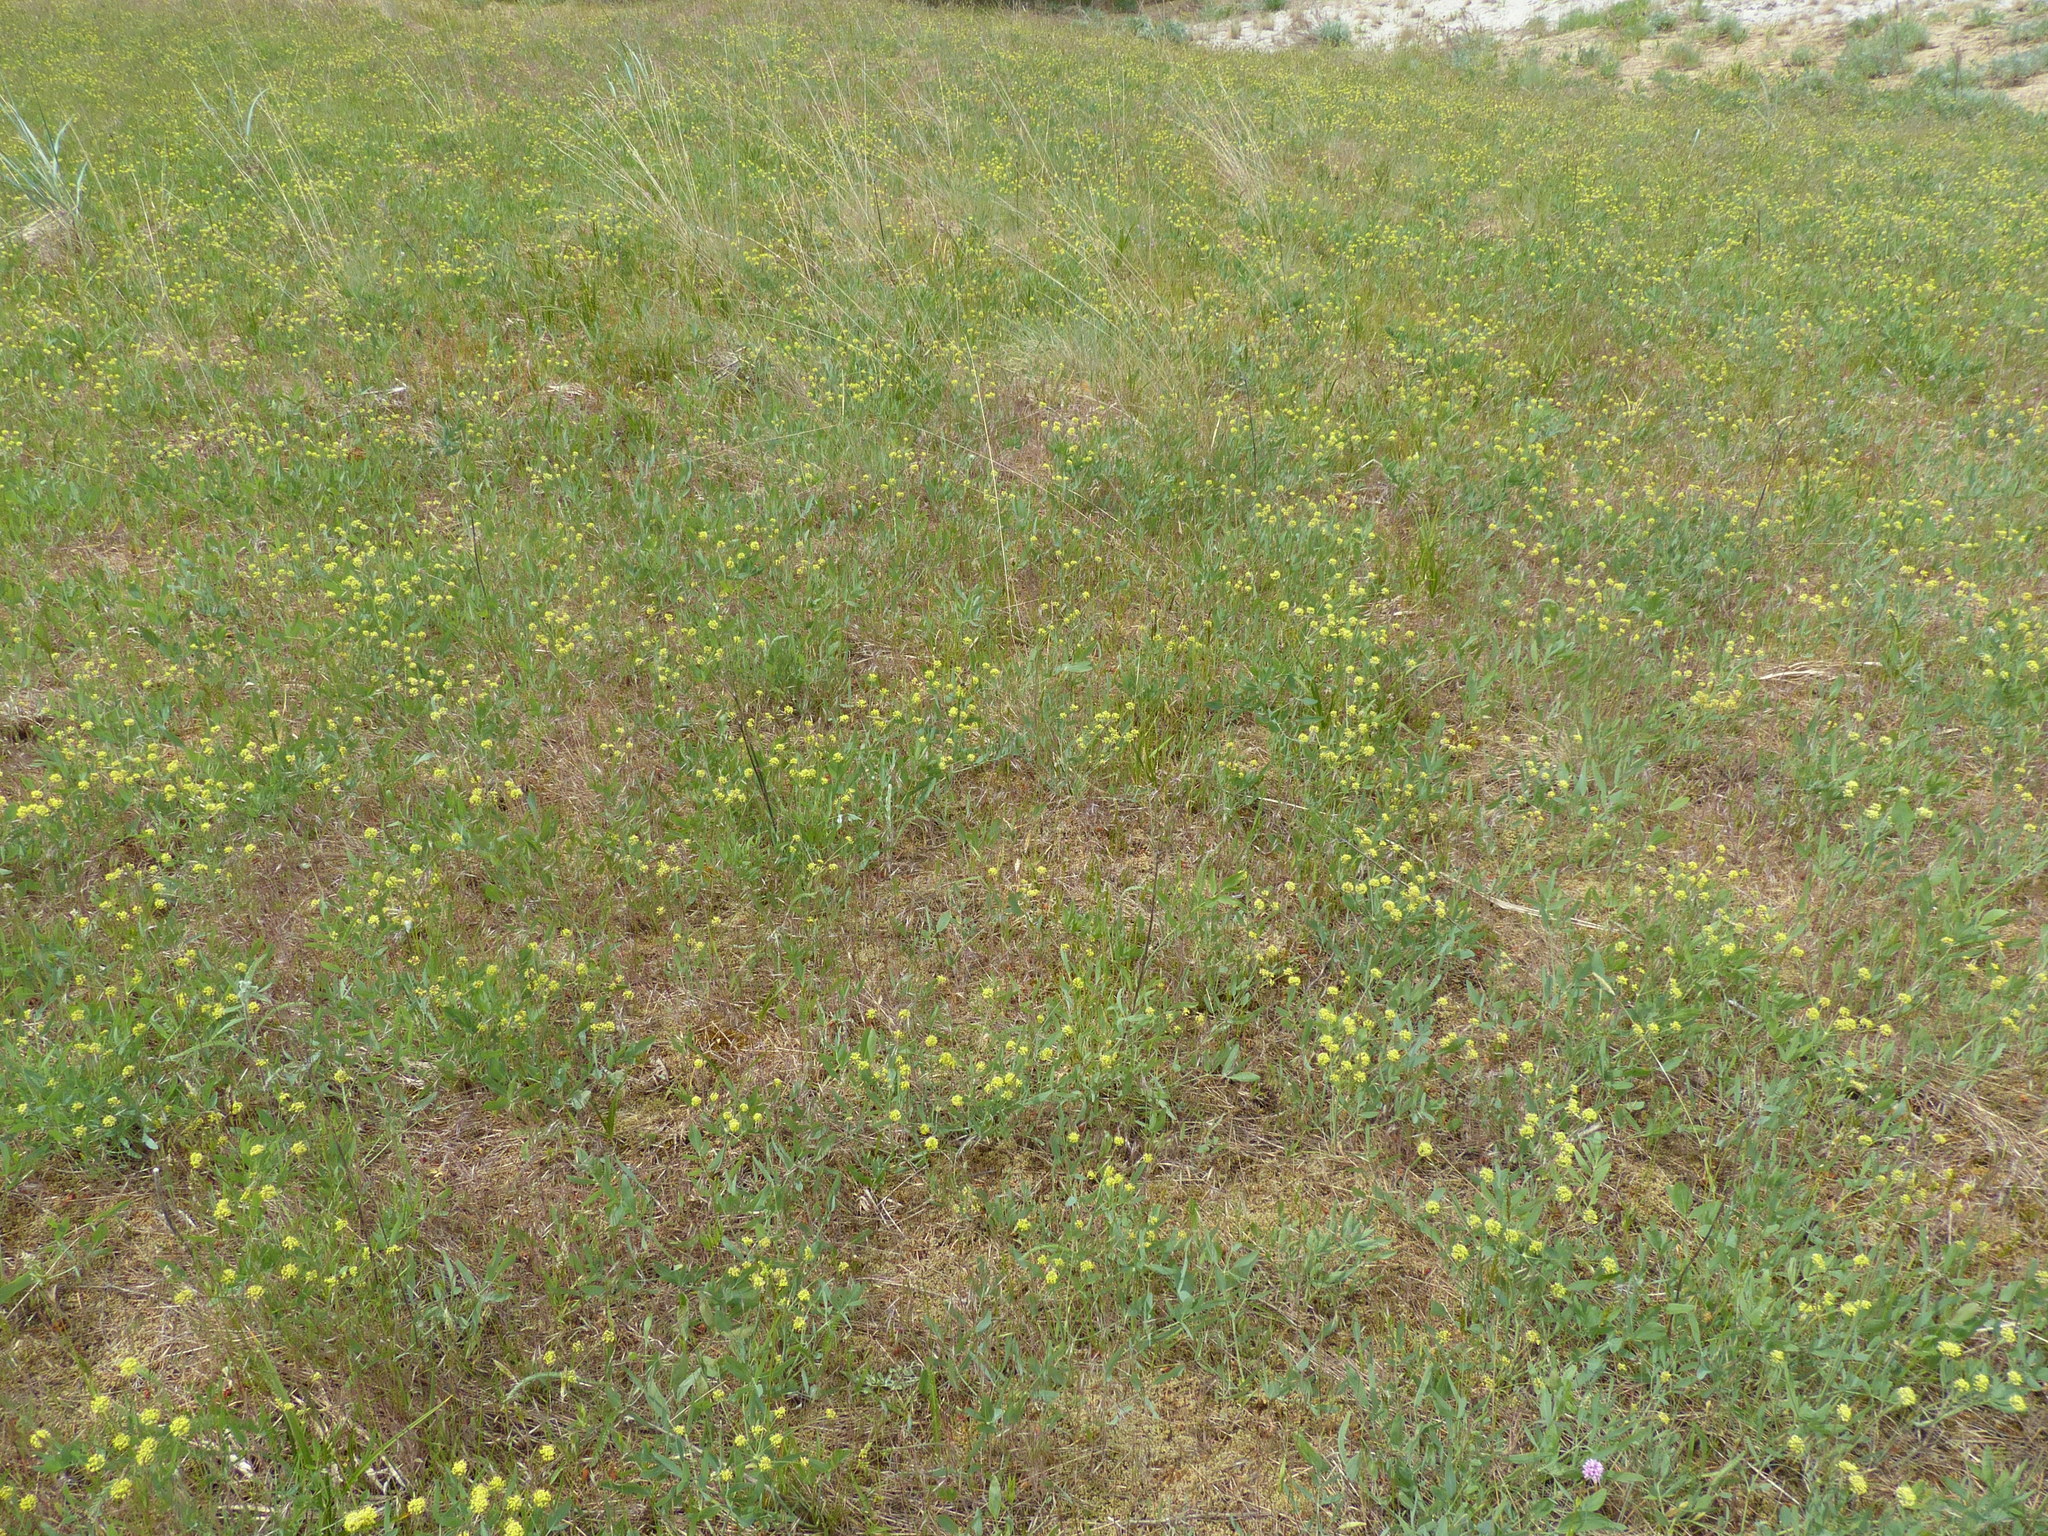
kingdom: Plantae
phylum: Tracheophyta
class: Magnoliopsida
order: Apiales
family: Apiaceae
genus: Lomatium
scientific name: Lomatium nudicaule
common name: Pestle lomatium
